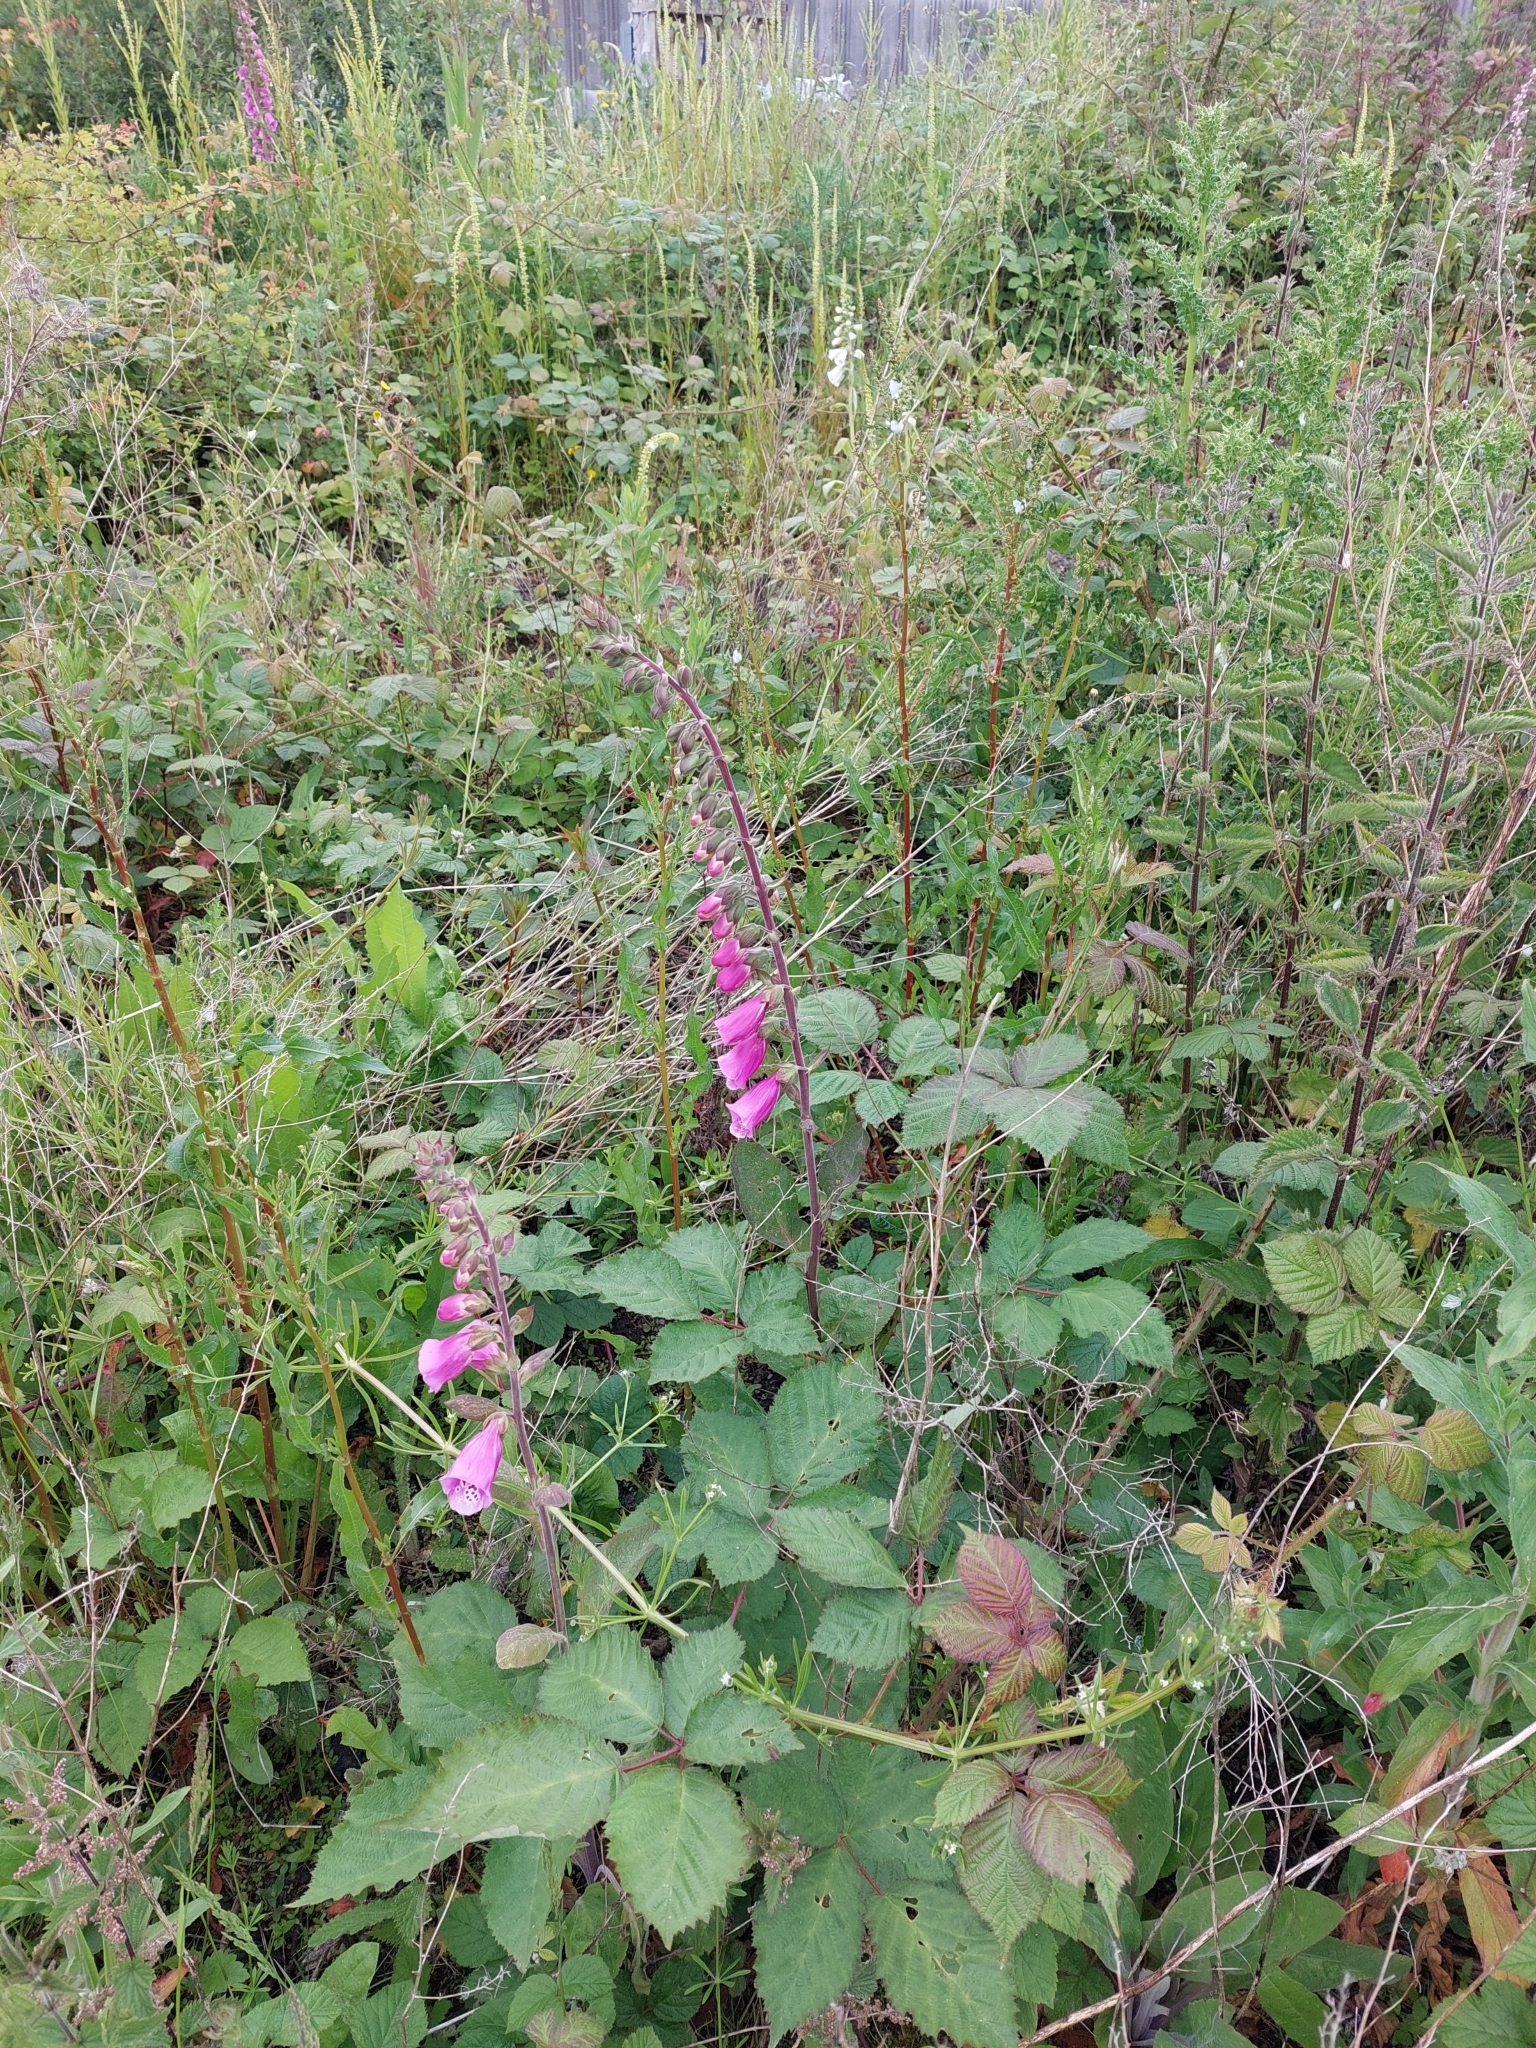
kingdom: Plantae
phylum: Tracheophyta
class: Magnoliopsida
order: Lamiales
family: Plantaginaceae
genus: Digitalis
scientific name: Digitalis purpurea
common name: Foxglove
